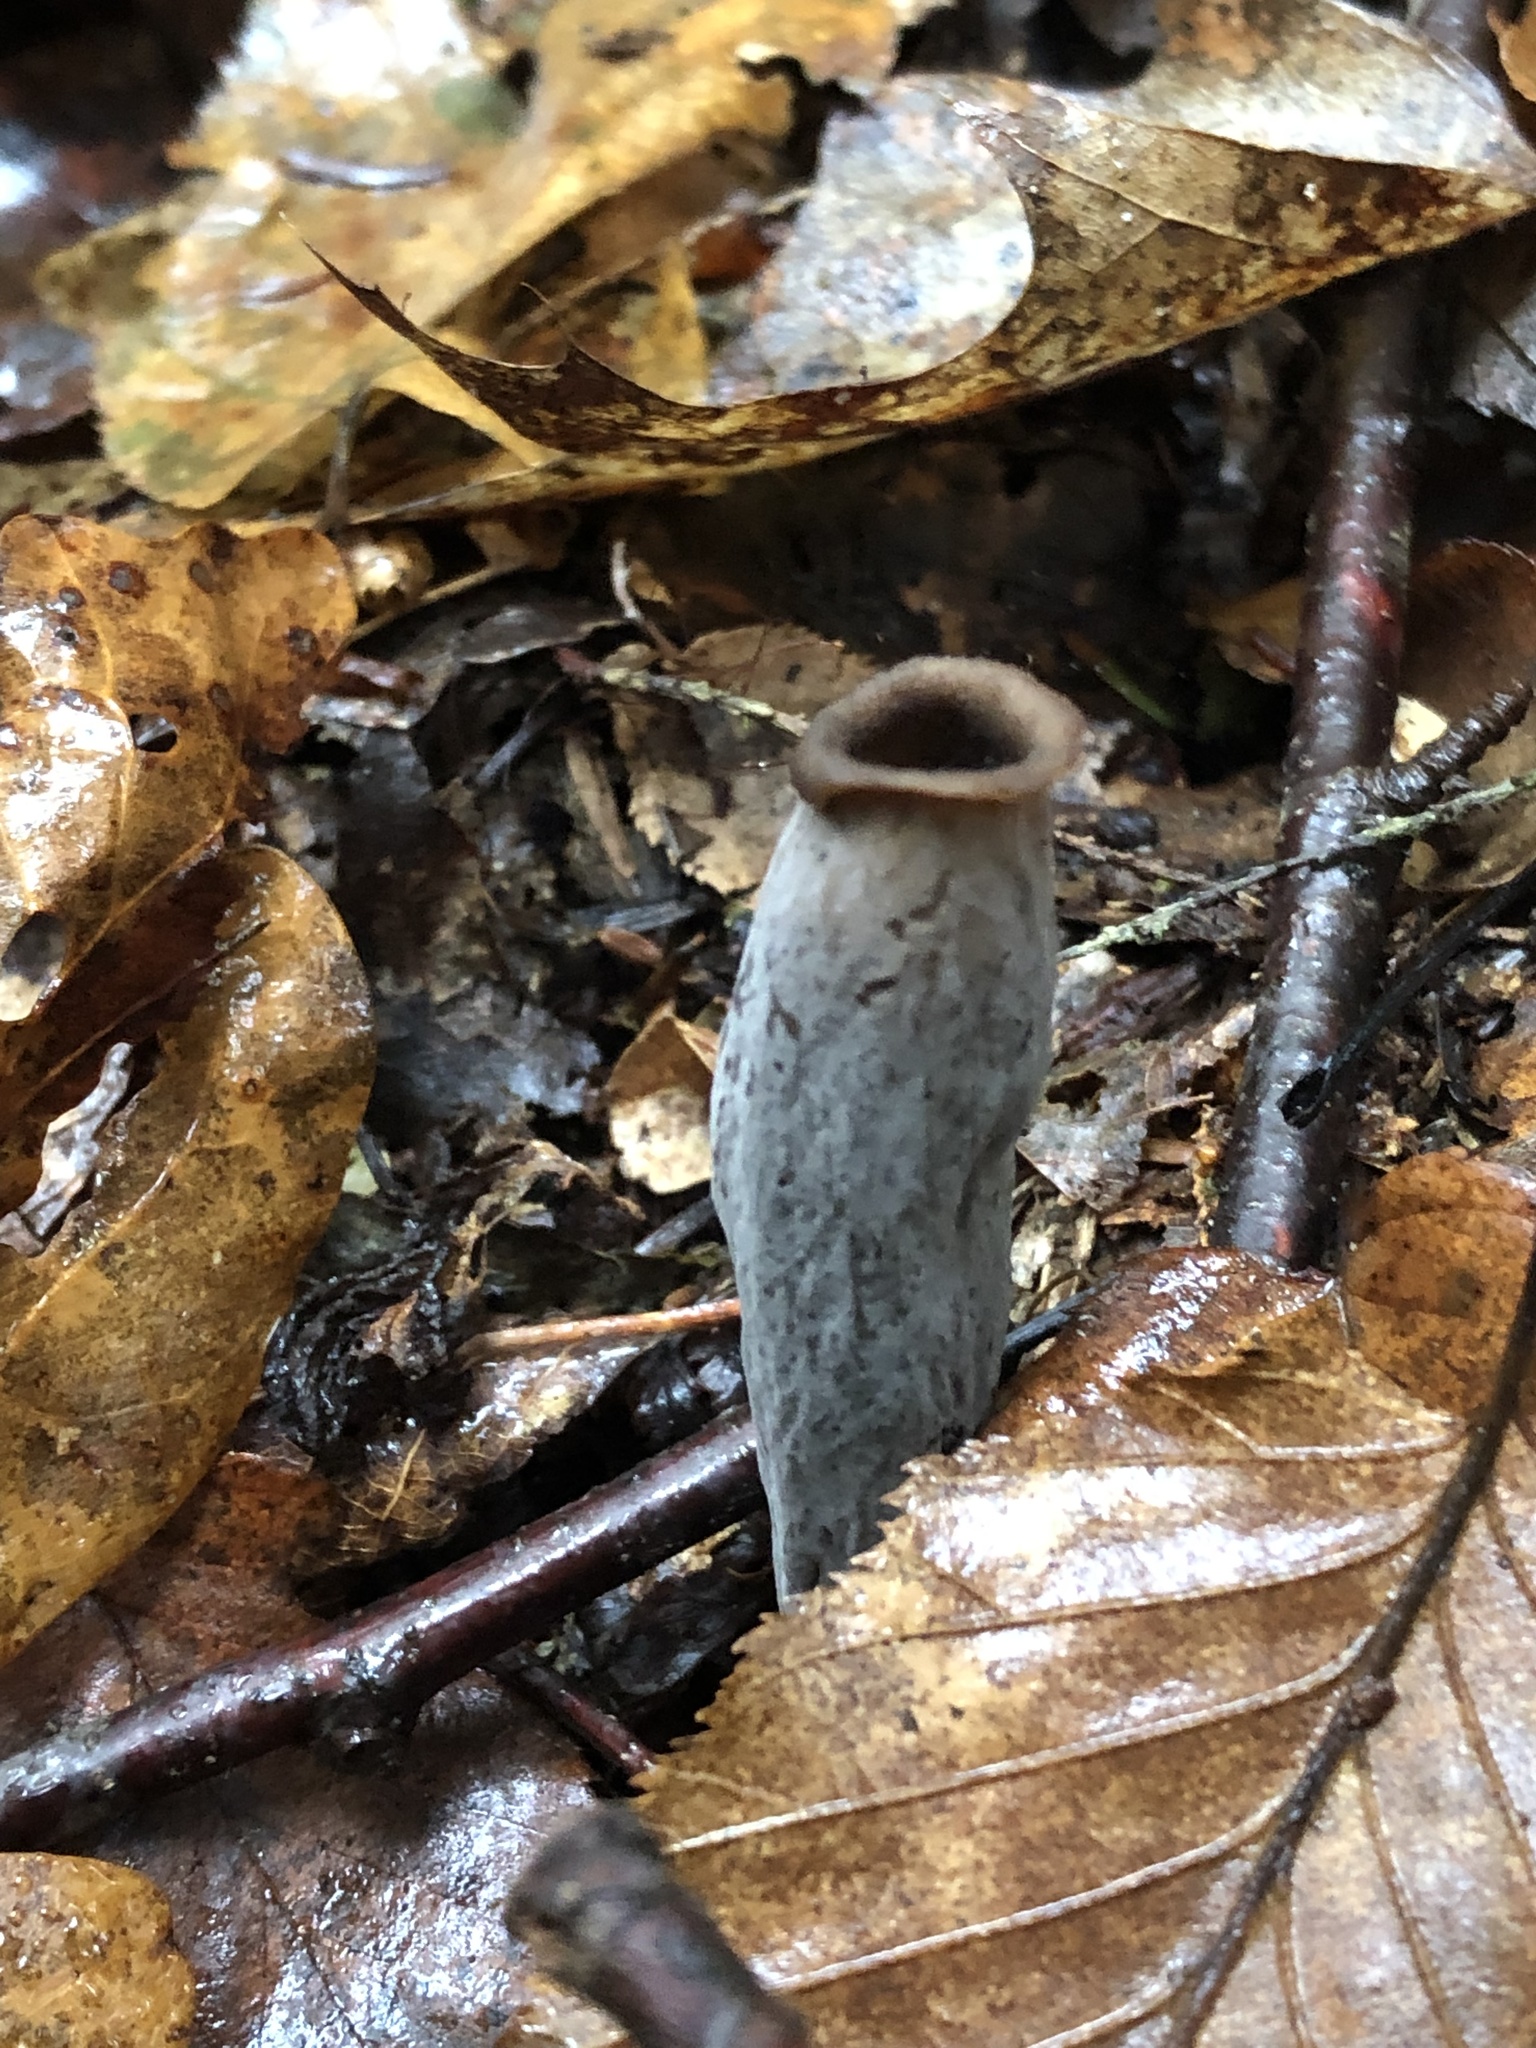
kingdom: Fungi
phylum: Basidiomycota
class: Agaricomycetes
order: Cantharellales
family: Hydnaceae
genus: Craterellus
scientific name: Craterellus cornucopioides
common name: Horn of plenty
